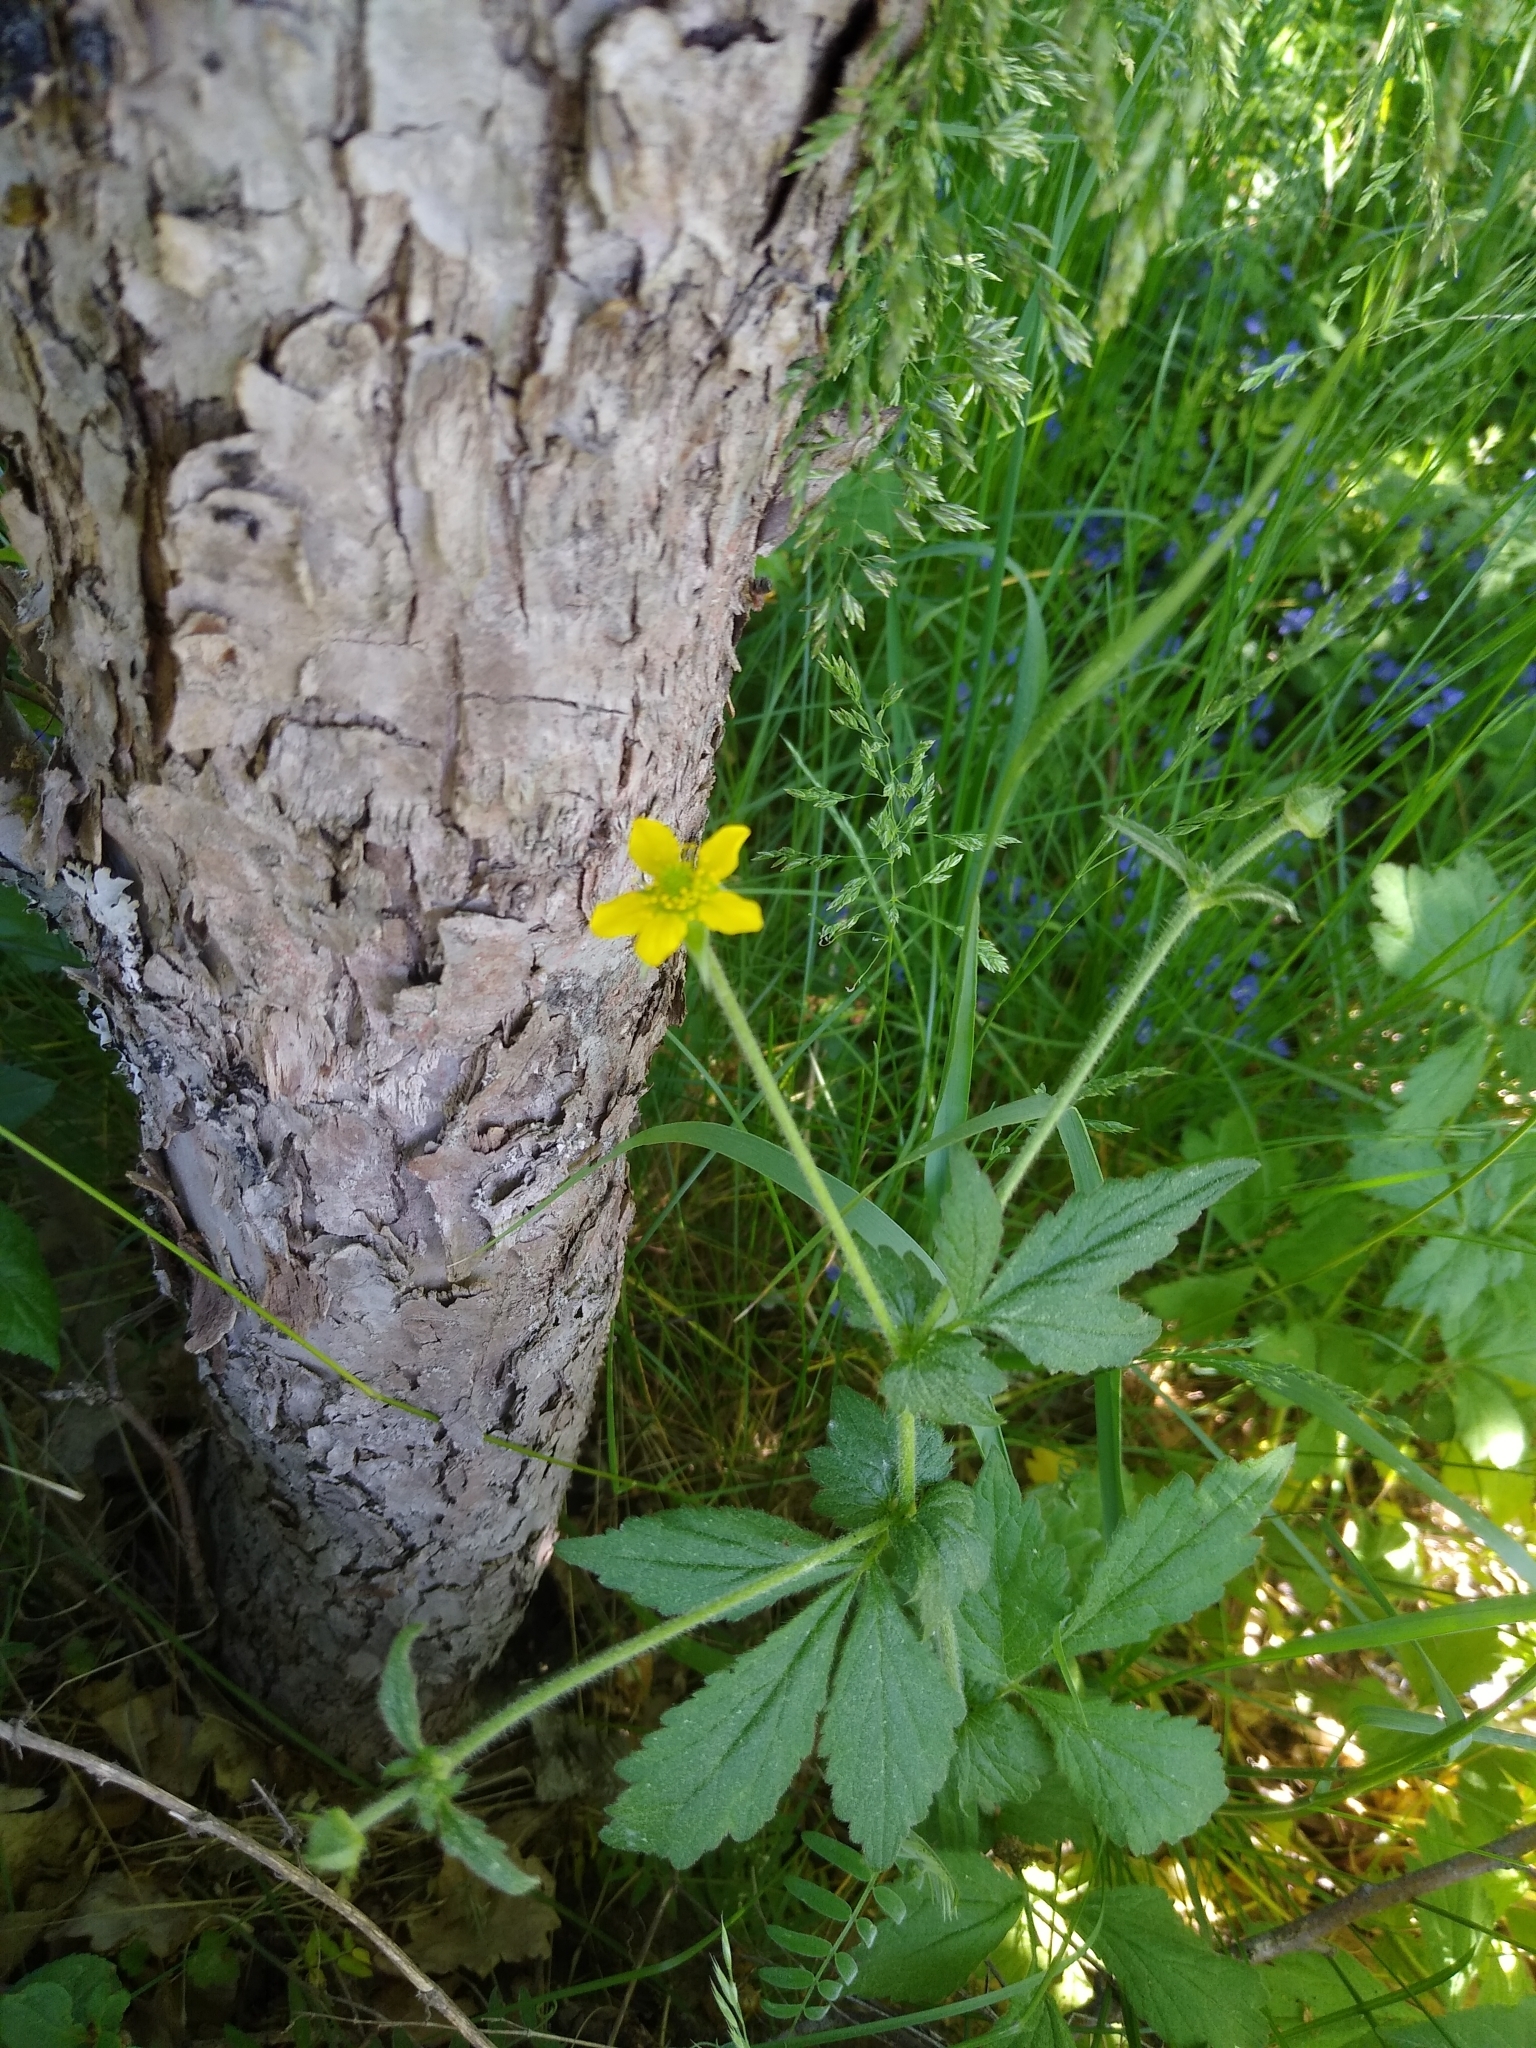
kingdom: Plantae
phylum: Tracheophyta
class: Magnoliopsida
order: Rosales
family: Rosaceae
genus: Geum
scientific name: Geum urbanum
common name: Wood avens
